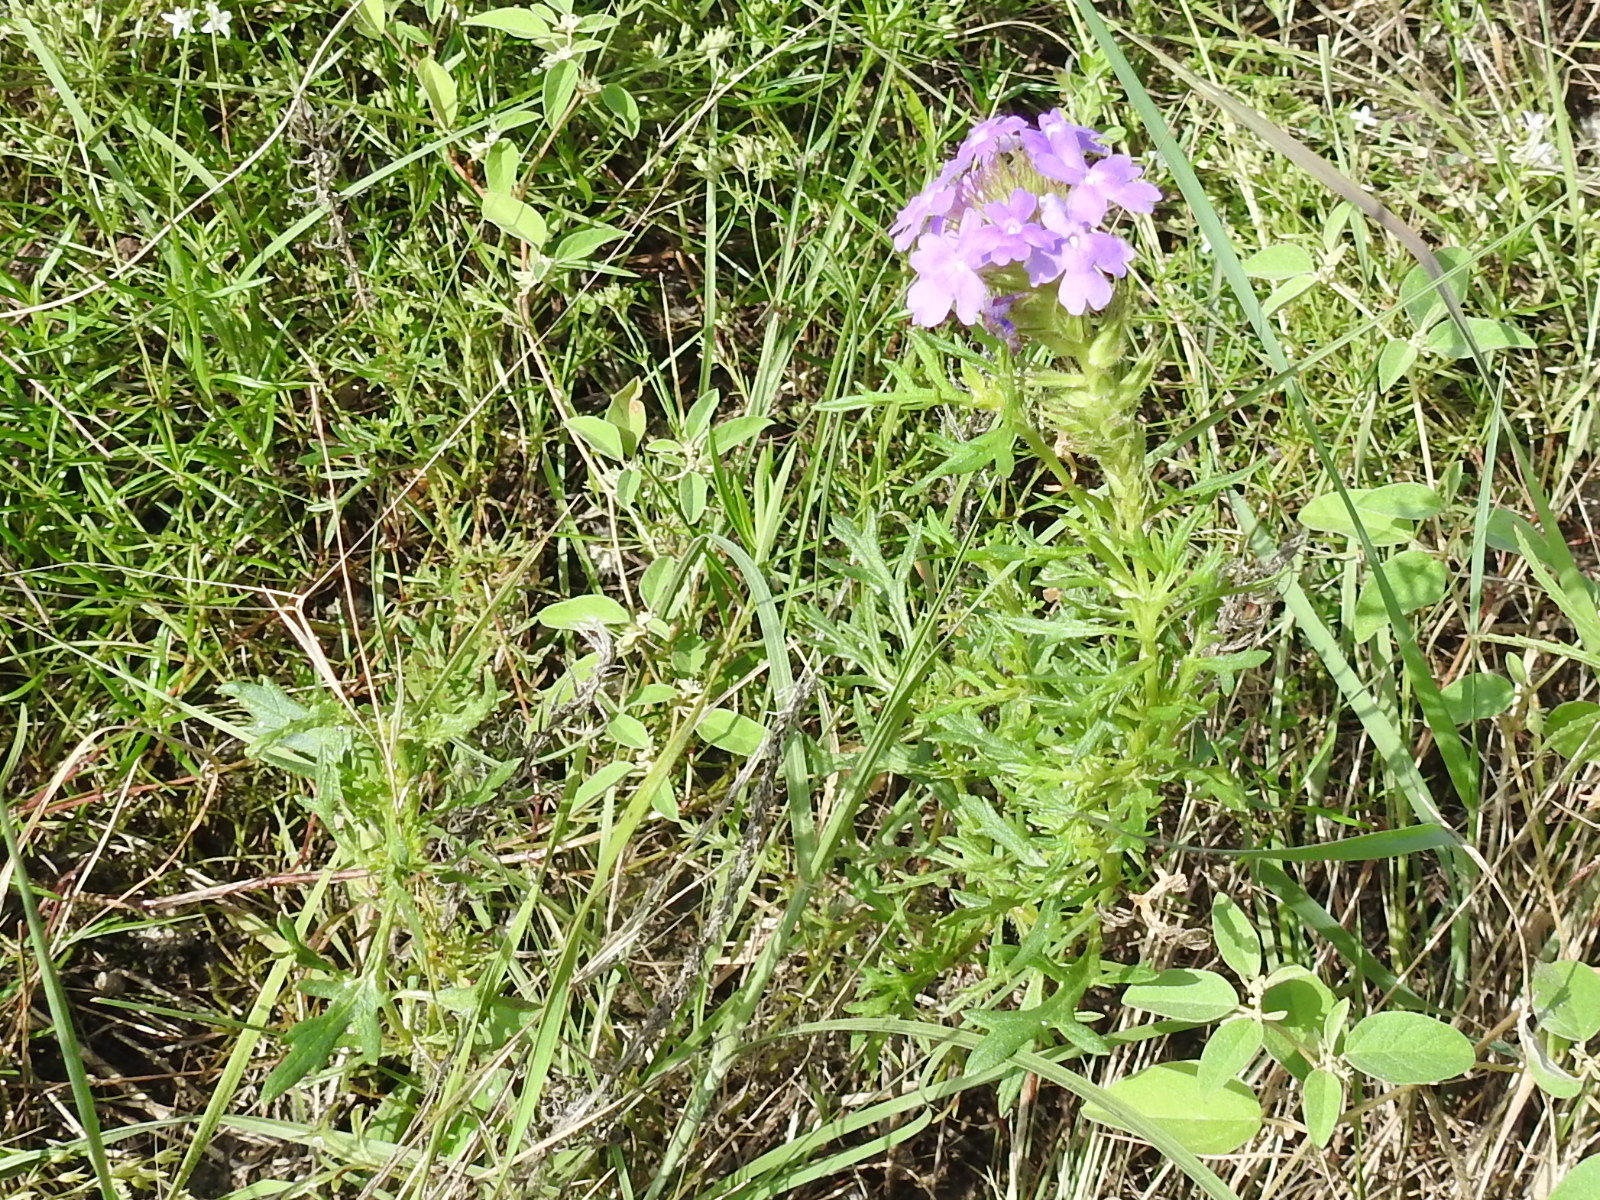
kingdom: Plantae
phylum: Tracheophyta
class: Magnoliopsida
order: Lamiales
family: Verbenaceae
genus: Verbena
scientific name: Verbena bipinnatifida
